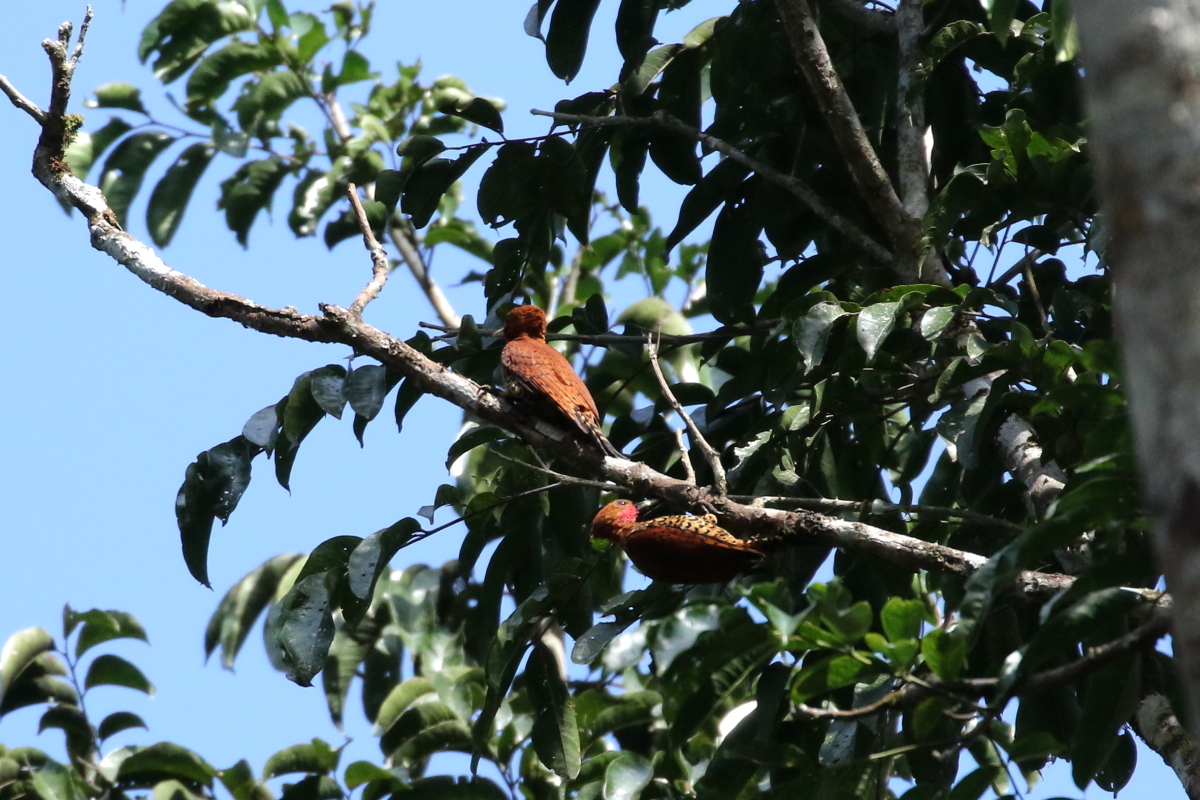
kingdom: Animalia
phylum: Chordata
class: Aves
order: Piciformes
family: Picidae
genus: Celeus
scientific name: Celeus loricatus
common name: Cinnamon woodpecker
